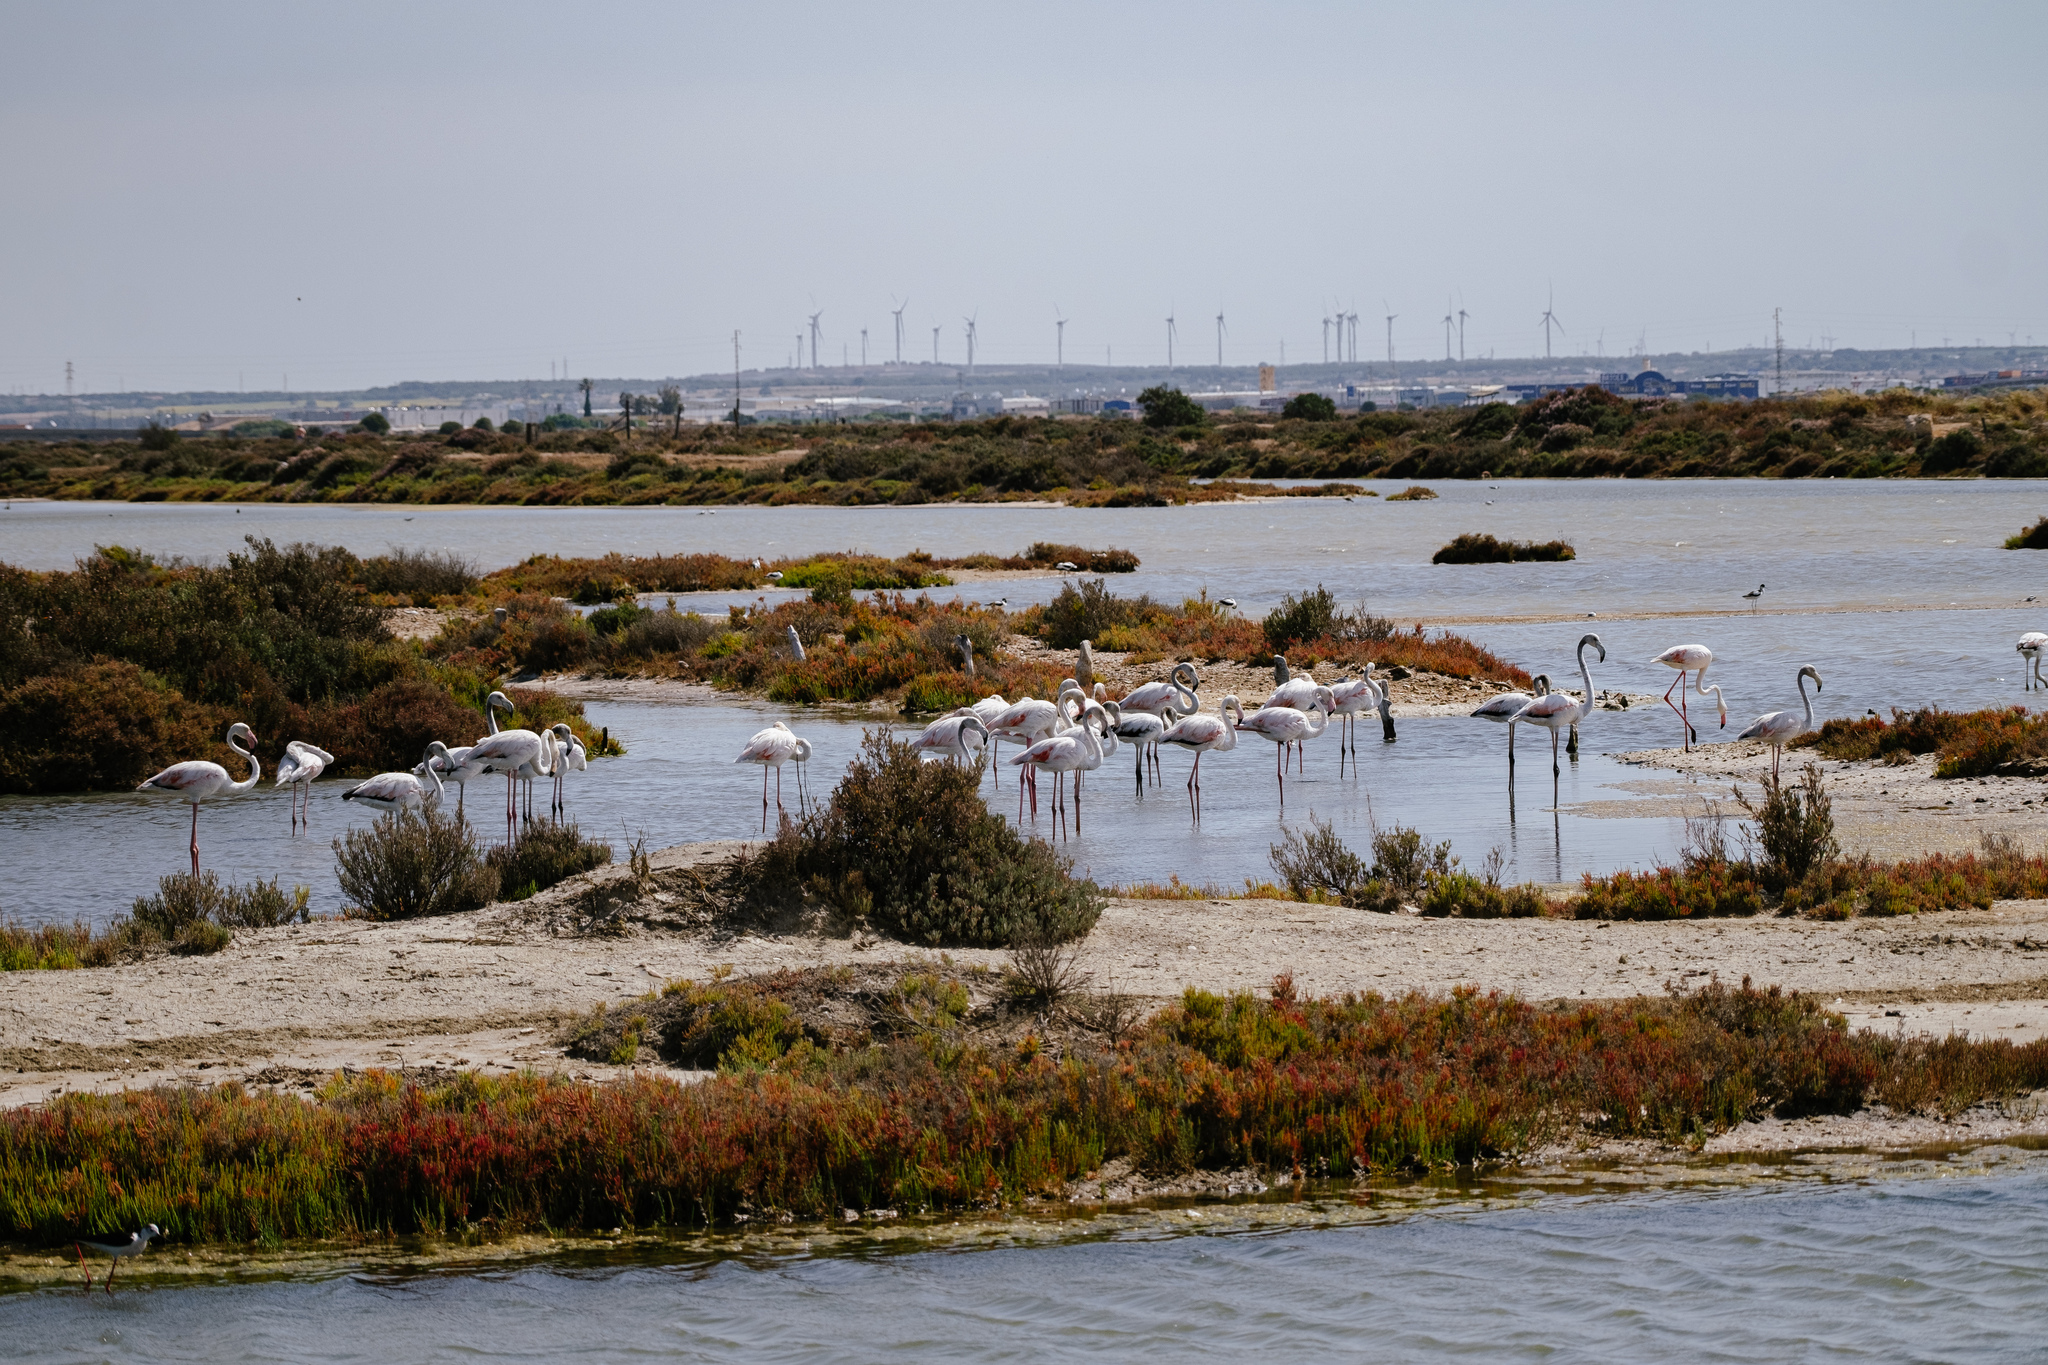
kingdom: Animalia
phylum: Chordata
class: Aves
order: Phoenicopteriformes
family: Phoenicopteridae
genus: Phoenicopterus
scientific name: Phoenicopterus roseus
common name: Greater flamingo
